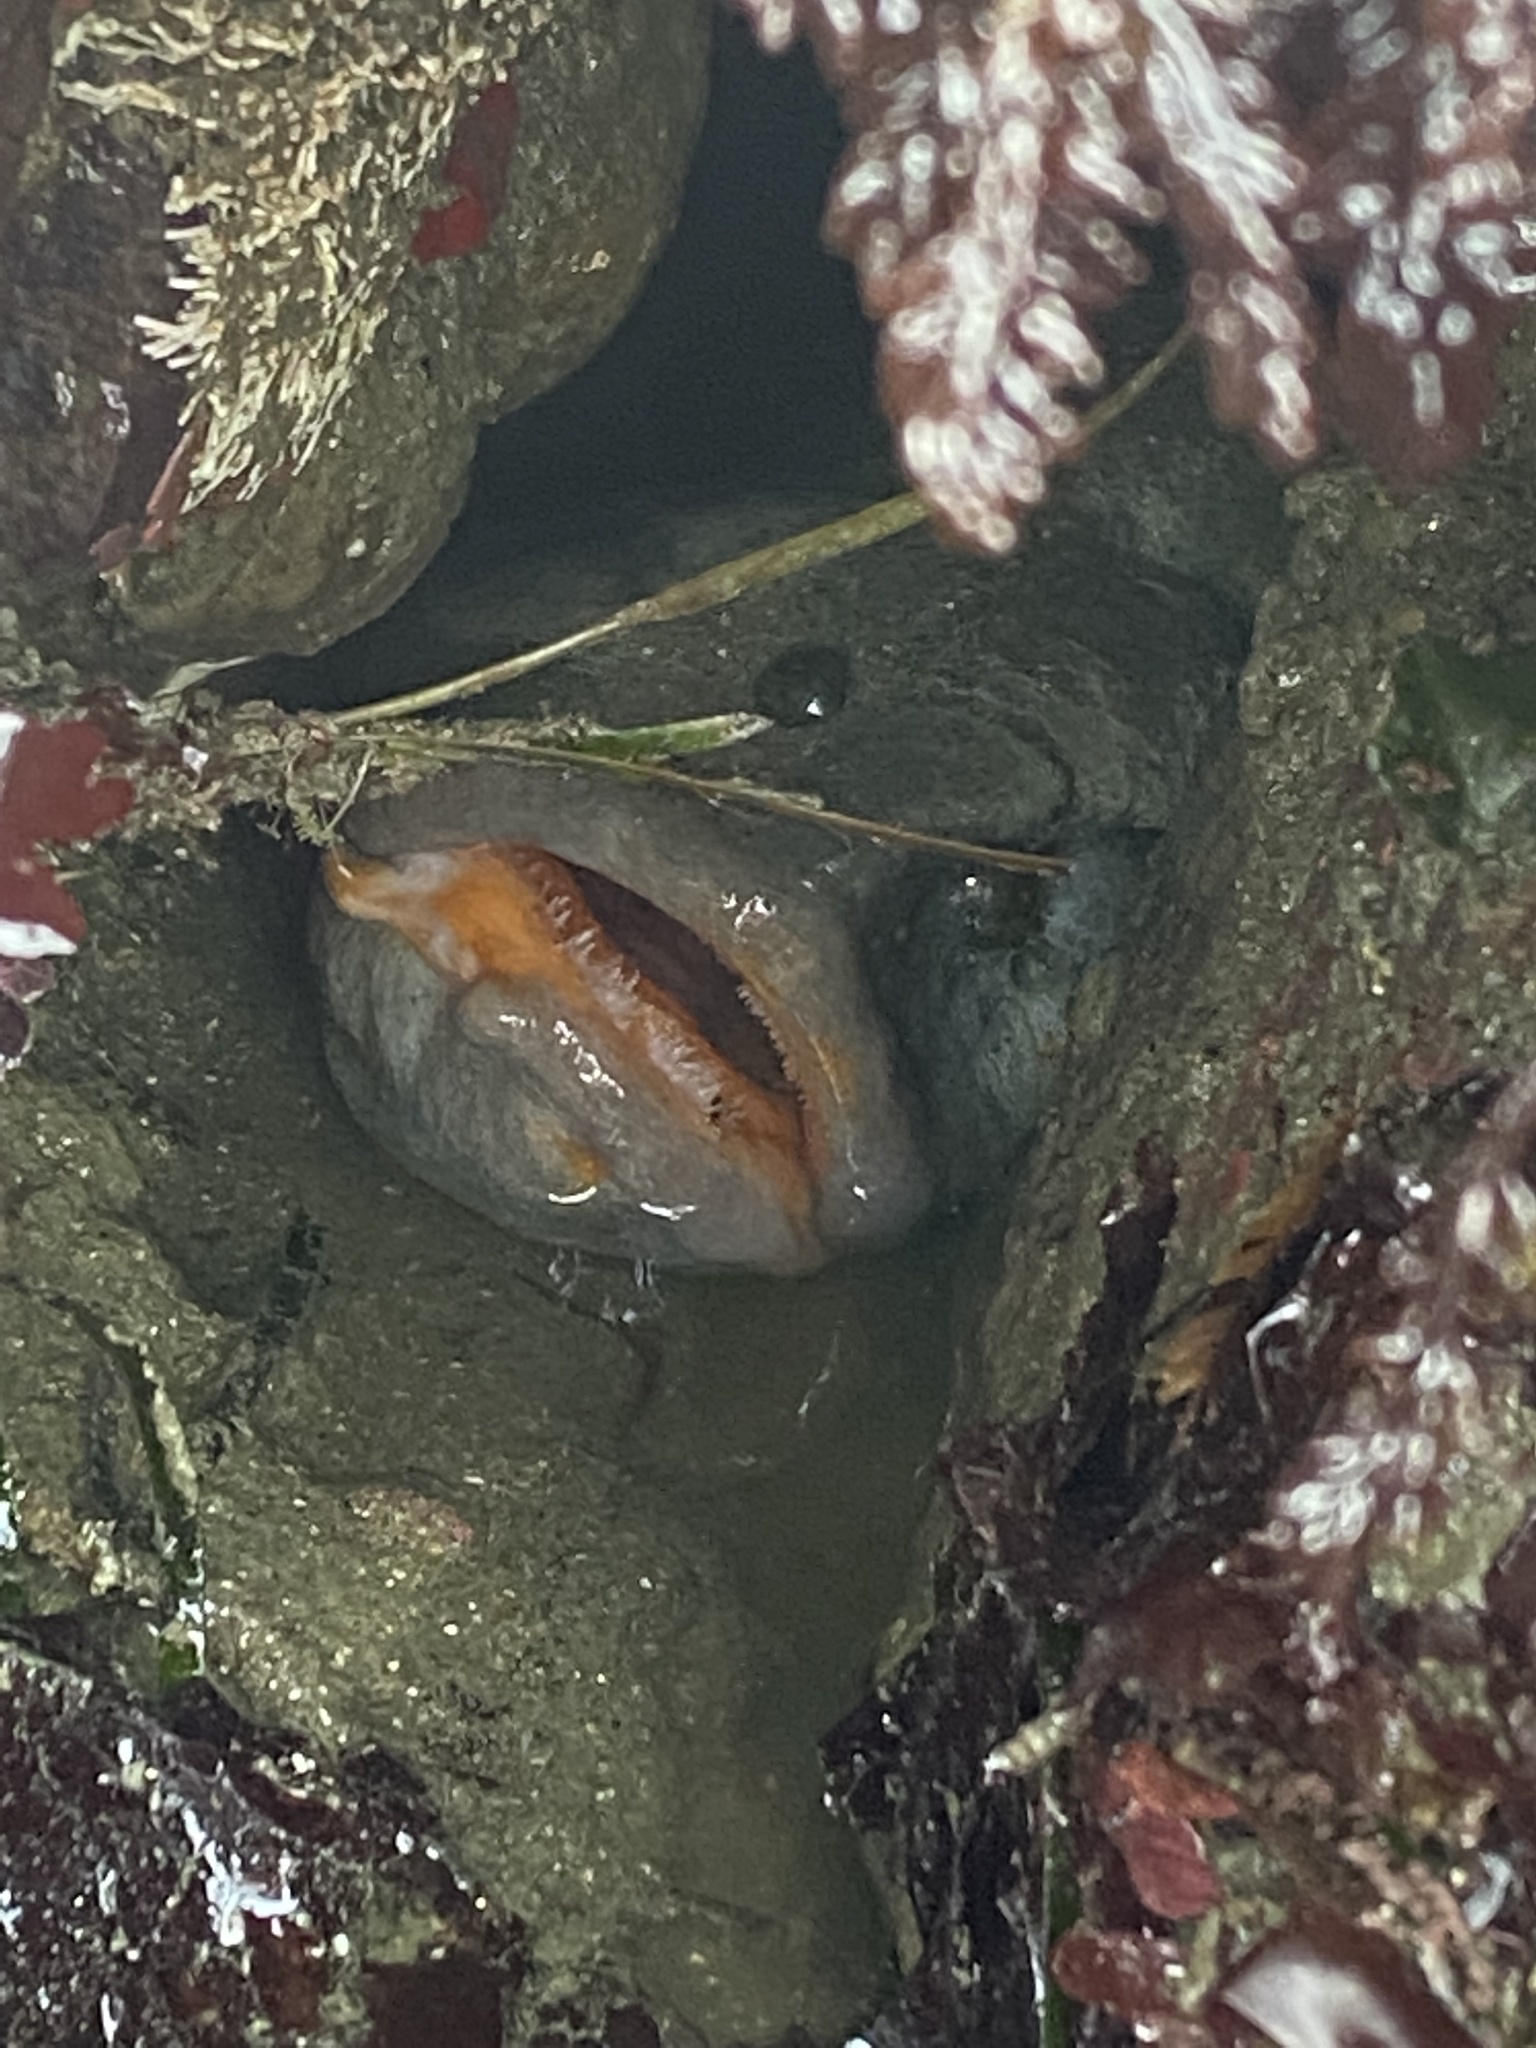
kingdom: Animalia
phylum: Chordata
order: Perciformes
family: Stichaeidae
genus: Cebidichthys
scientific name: Cebidichthys violaceus
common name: Monkeyface prickleback
